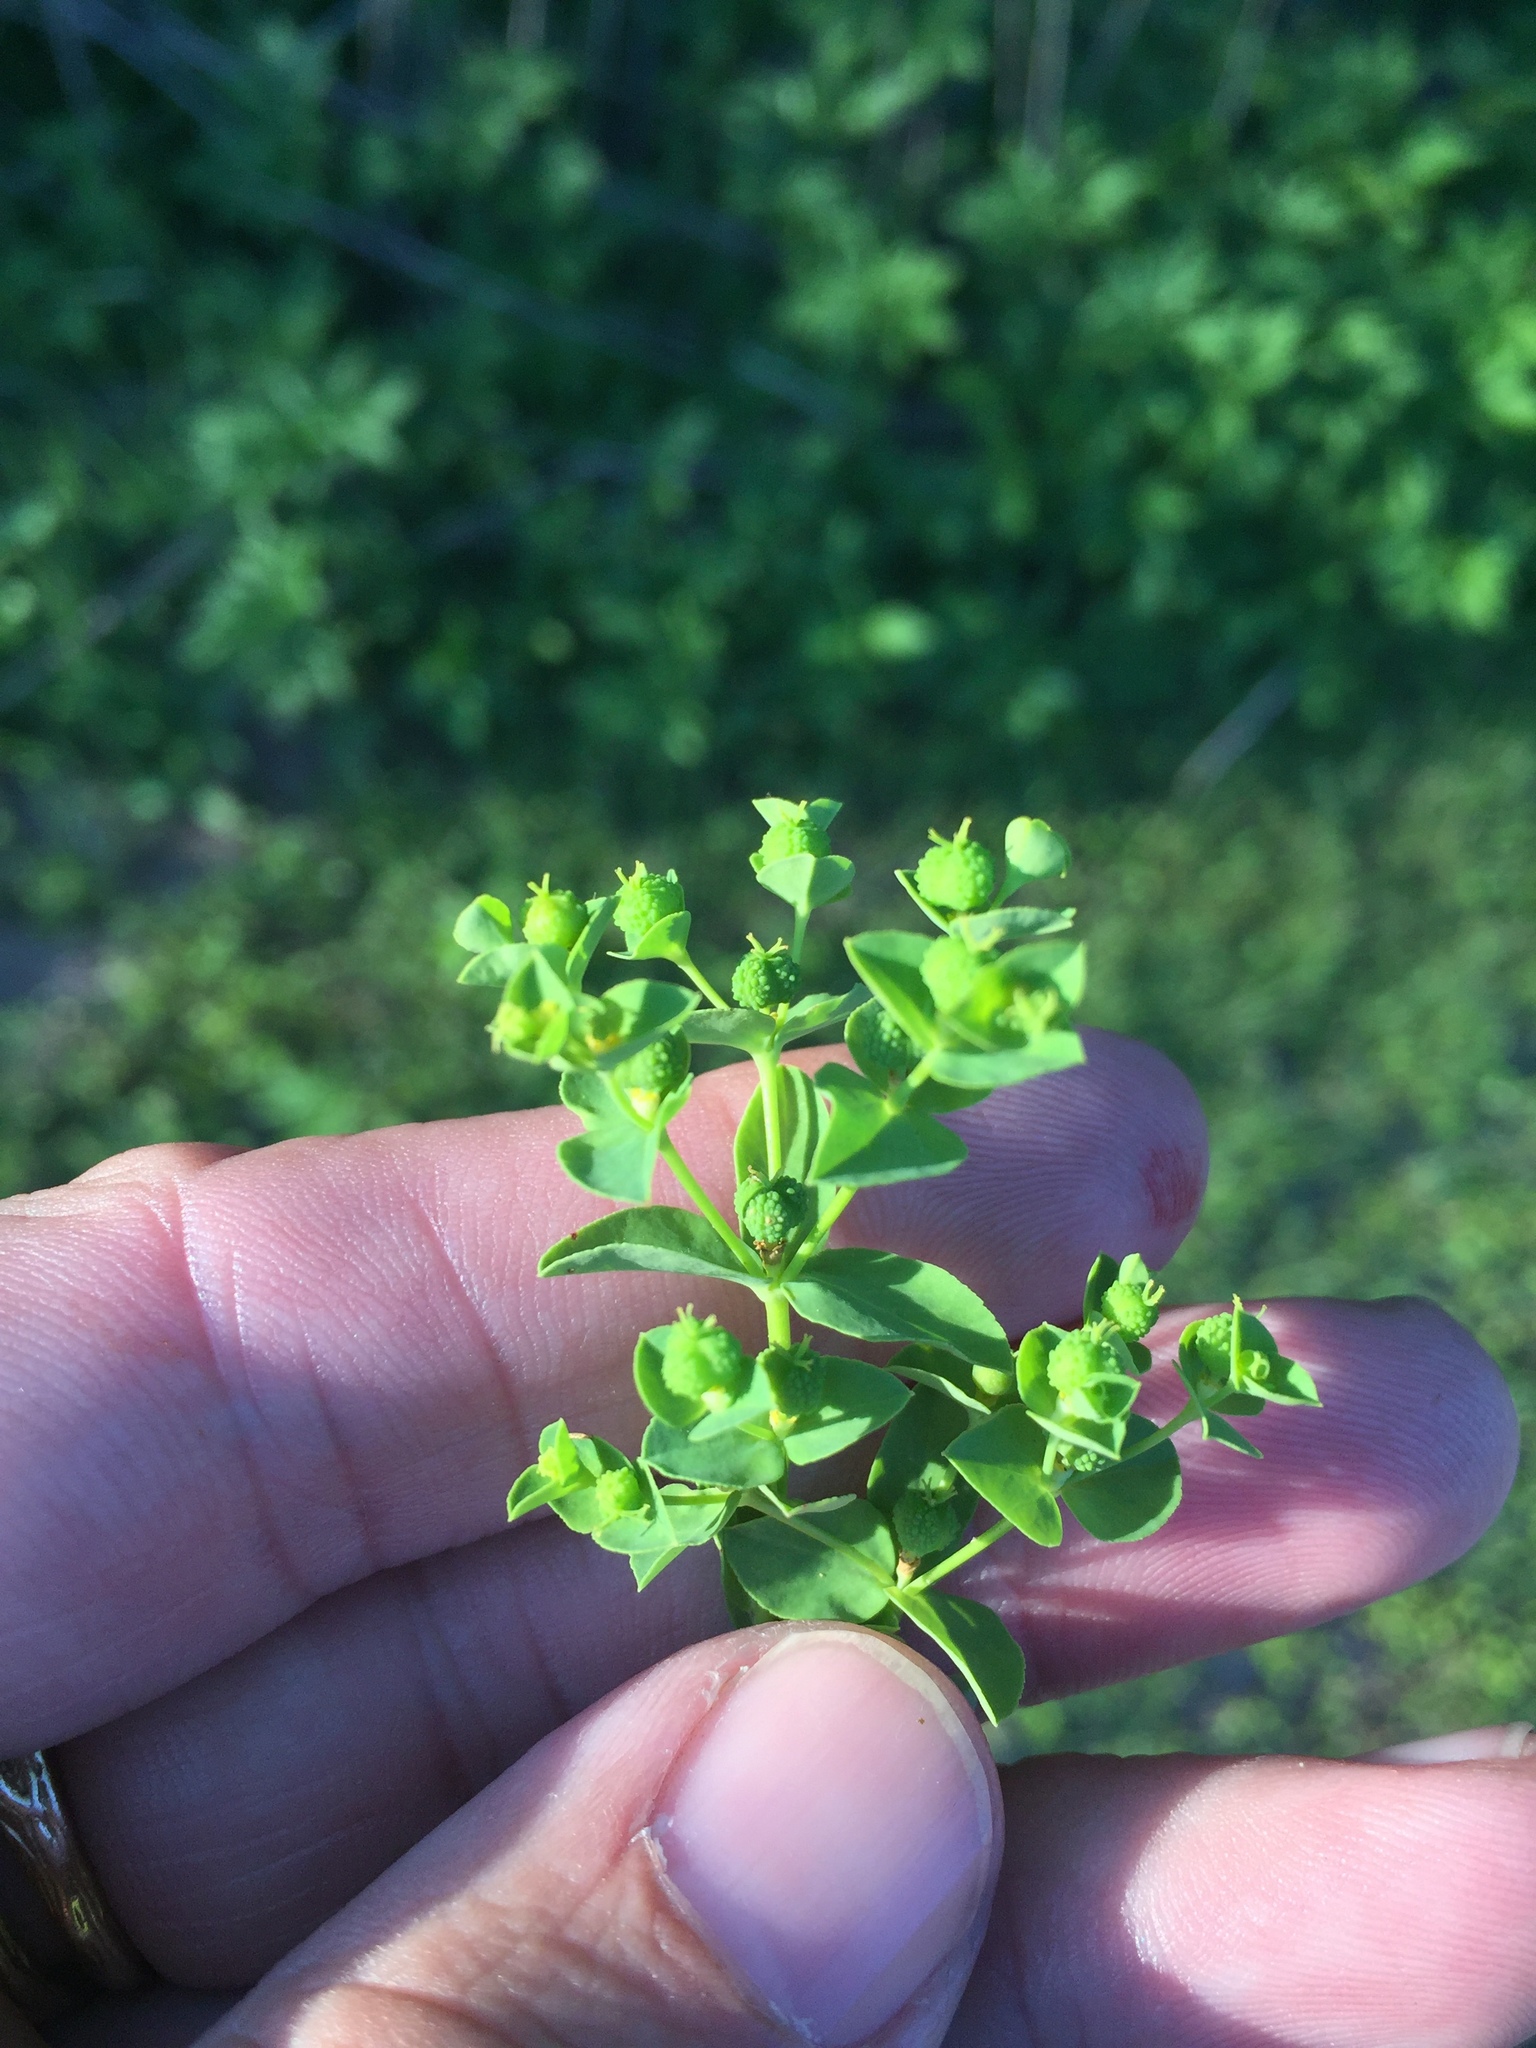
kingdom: Plantae
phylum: Tracheophyta
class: Magnoliopsida
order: Malpighiales
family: Euphorbiaceae
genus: Euphorbia
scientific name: Euphorbia spathulata
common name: Blunt spurge
